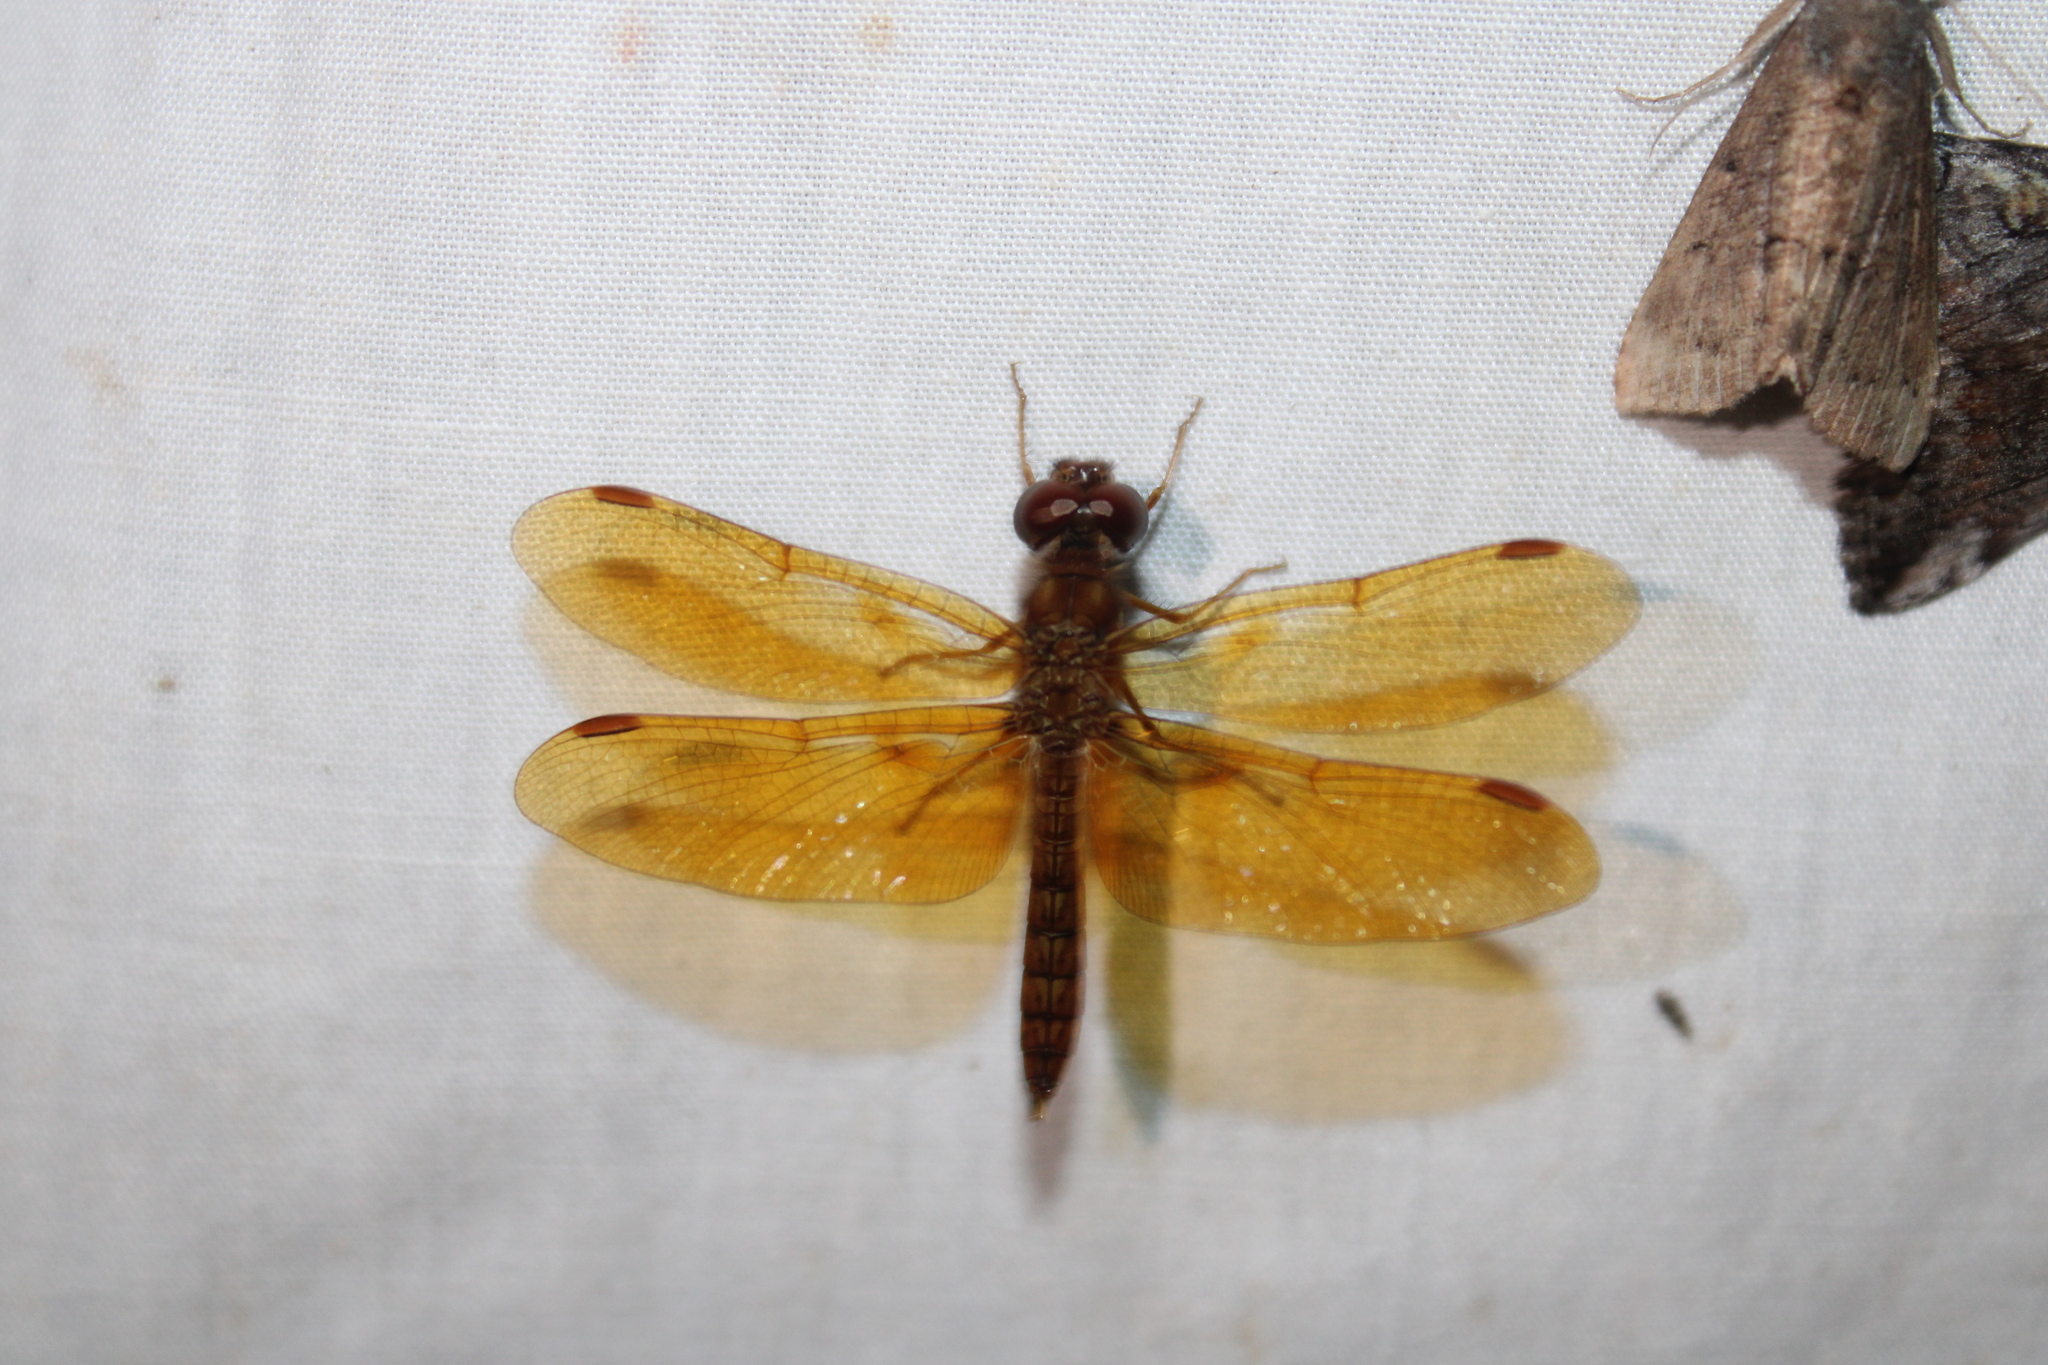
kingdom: Animalia
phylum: Arthropoda
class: Insecta
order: Odonata
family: Libellulidae
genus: Perithemis
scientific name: Perithemis tenera
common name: Eastern amberwing
